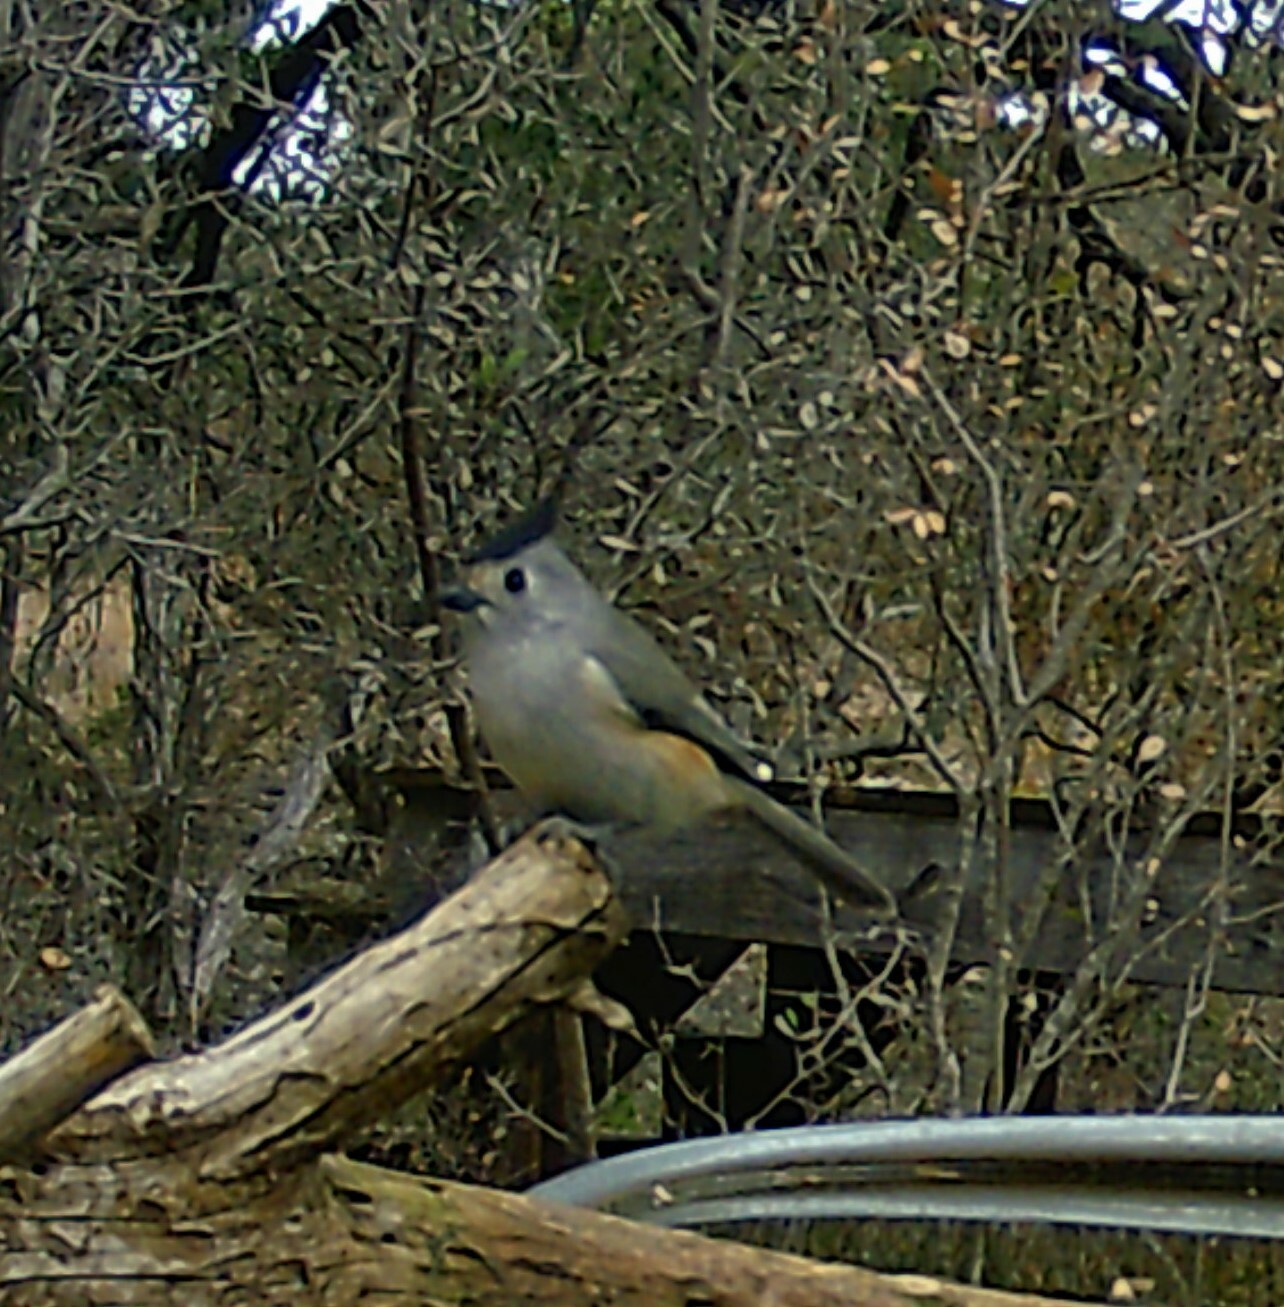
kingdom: Animalia
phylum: Chordata
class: Aves
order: Passeriformes
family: Paridae
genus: Baeolophus
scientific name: Baeolophus atricristatus
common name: Black-crested titmouse
